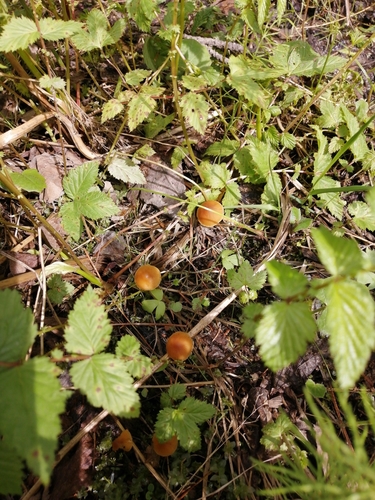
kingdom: Fungi
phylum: Basidiomycota
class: Agaricomycetes
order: Agaricales
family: Hymenogastraceae
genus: Galerina
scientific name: Galerina
